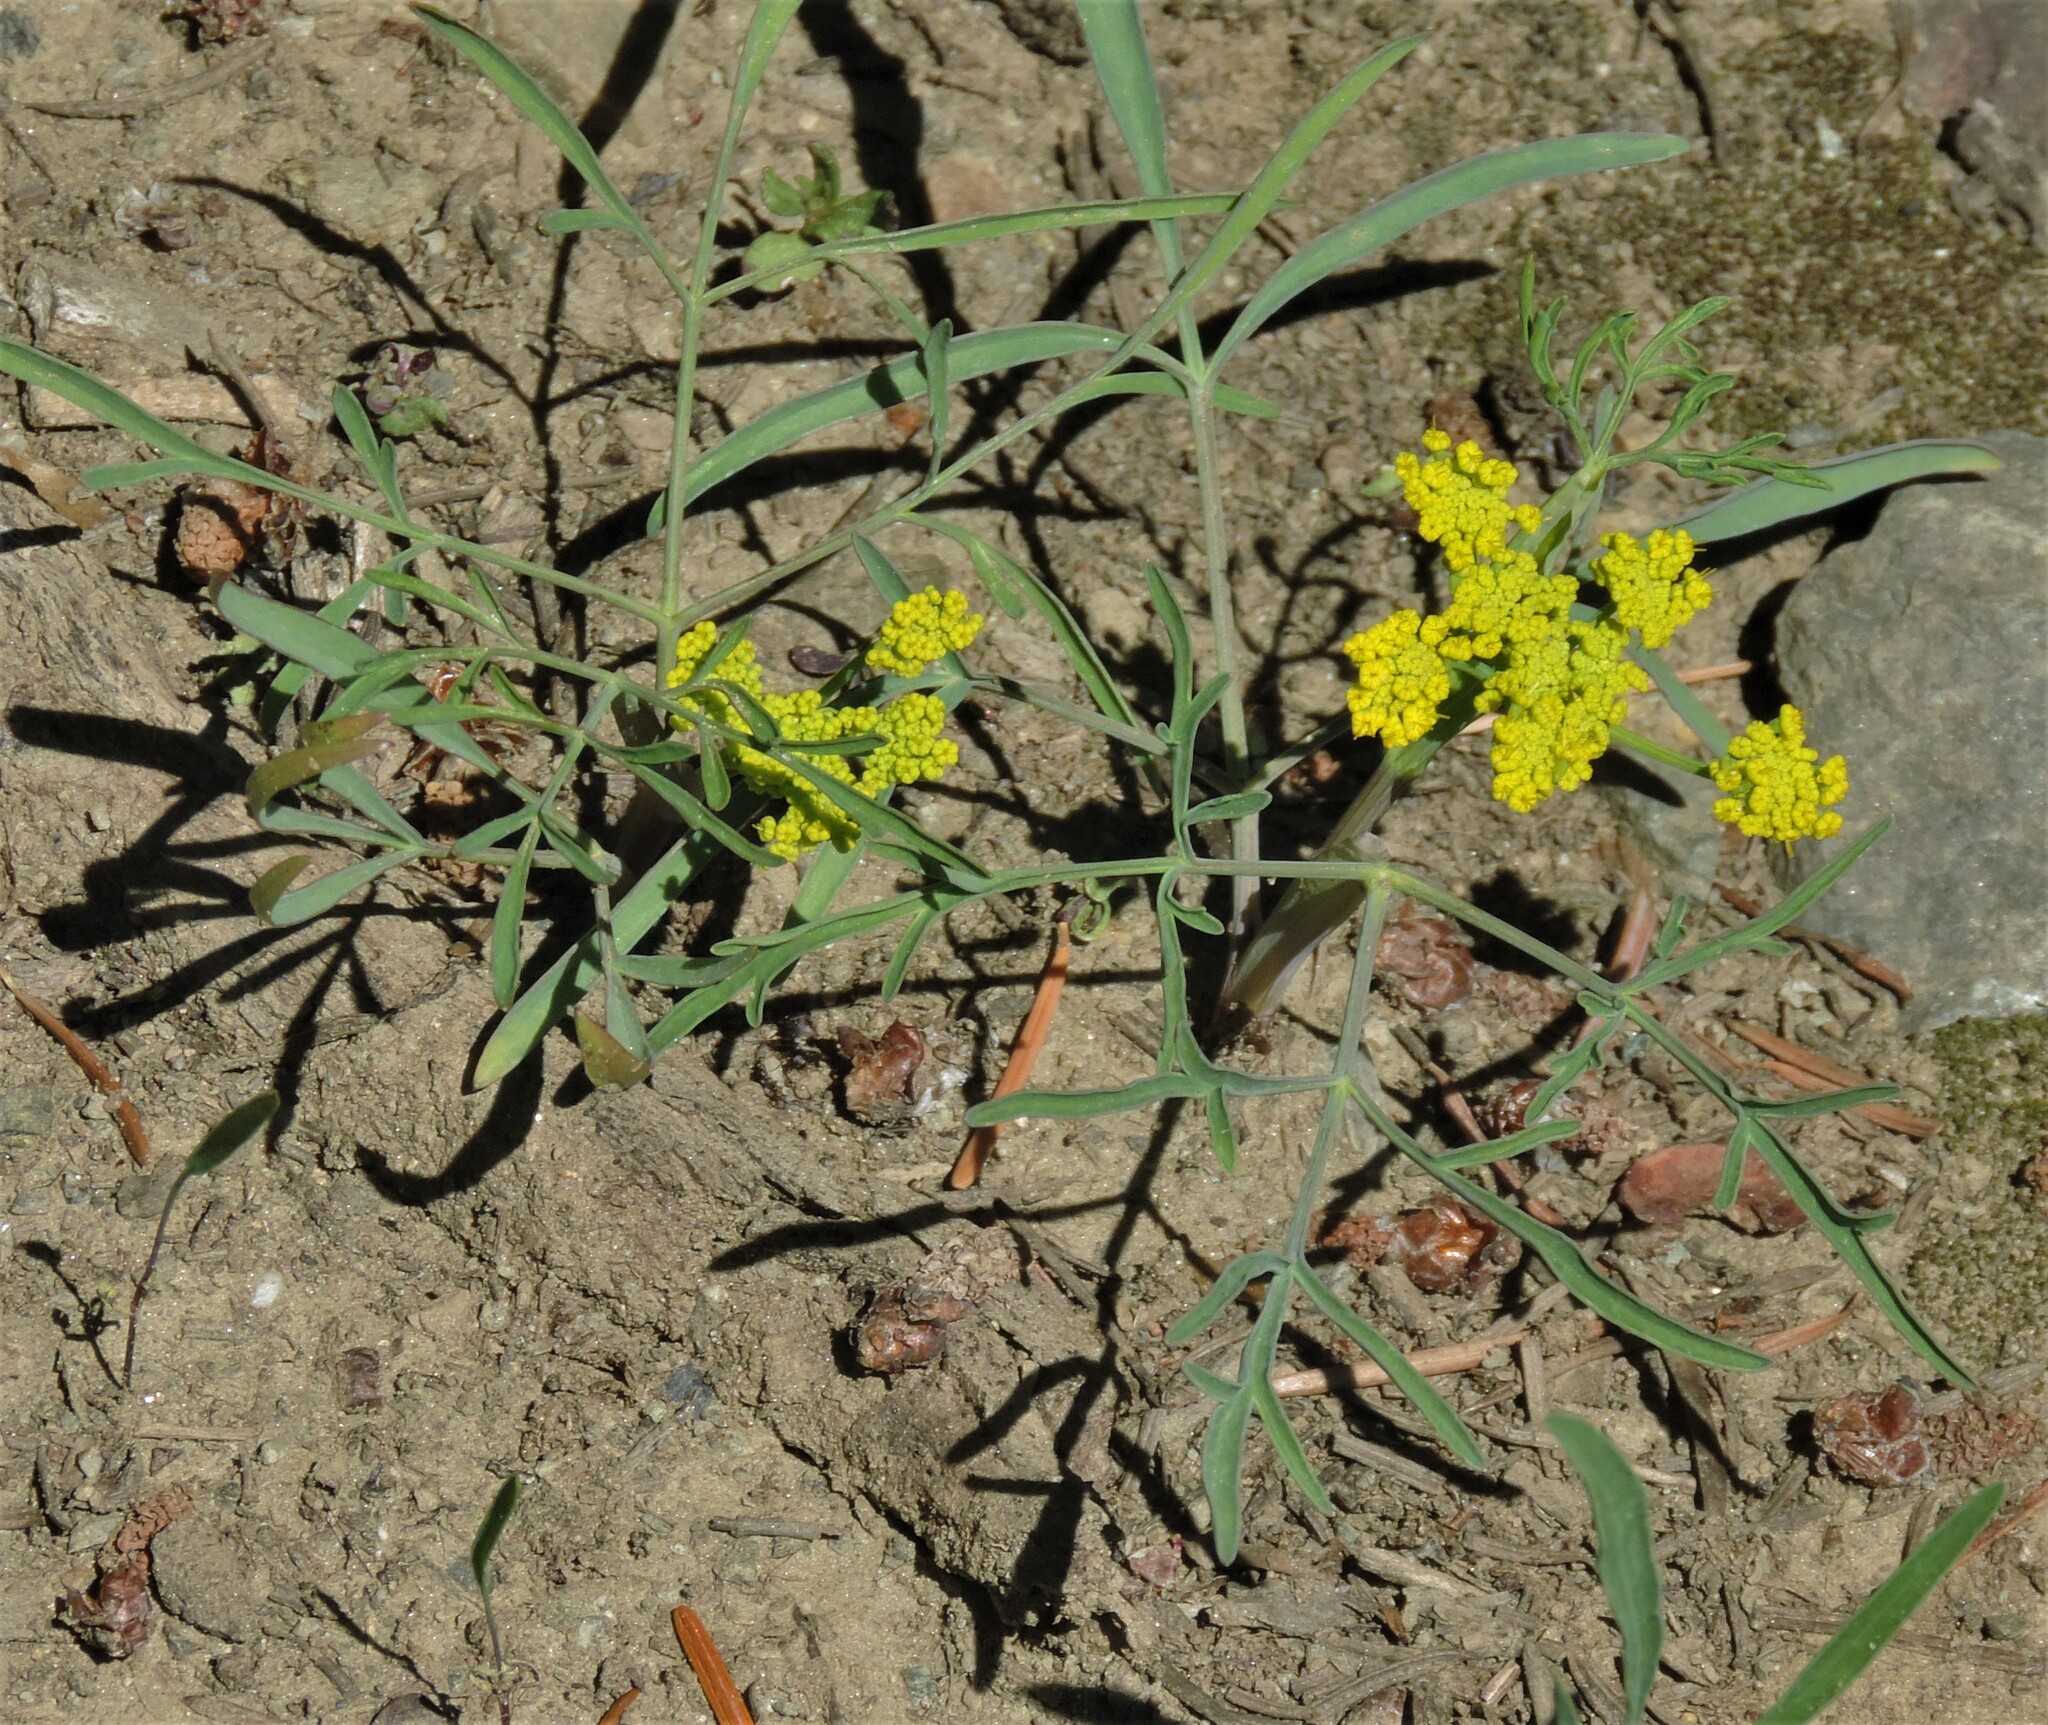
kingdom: Plantae
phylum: Tracheophyta
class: Magnoliopsida
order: Apiales
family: Apiaceae
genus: Lomatium
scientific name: Lomatium ambiguum
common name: Lacy lomatium
